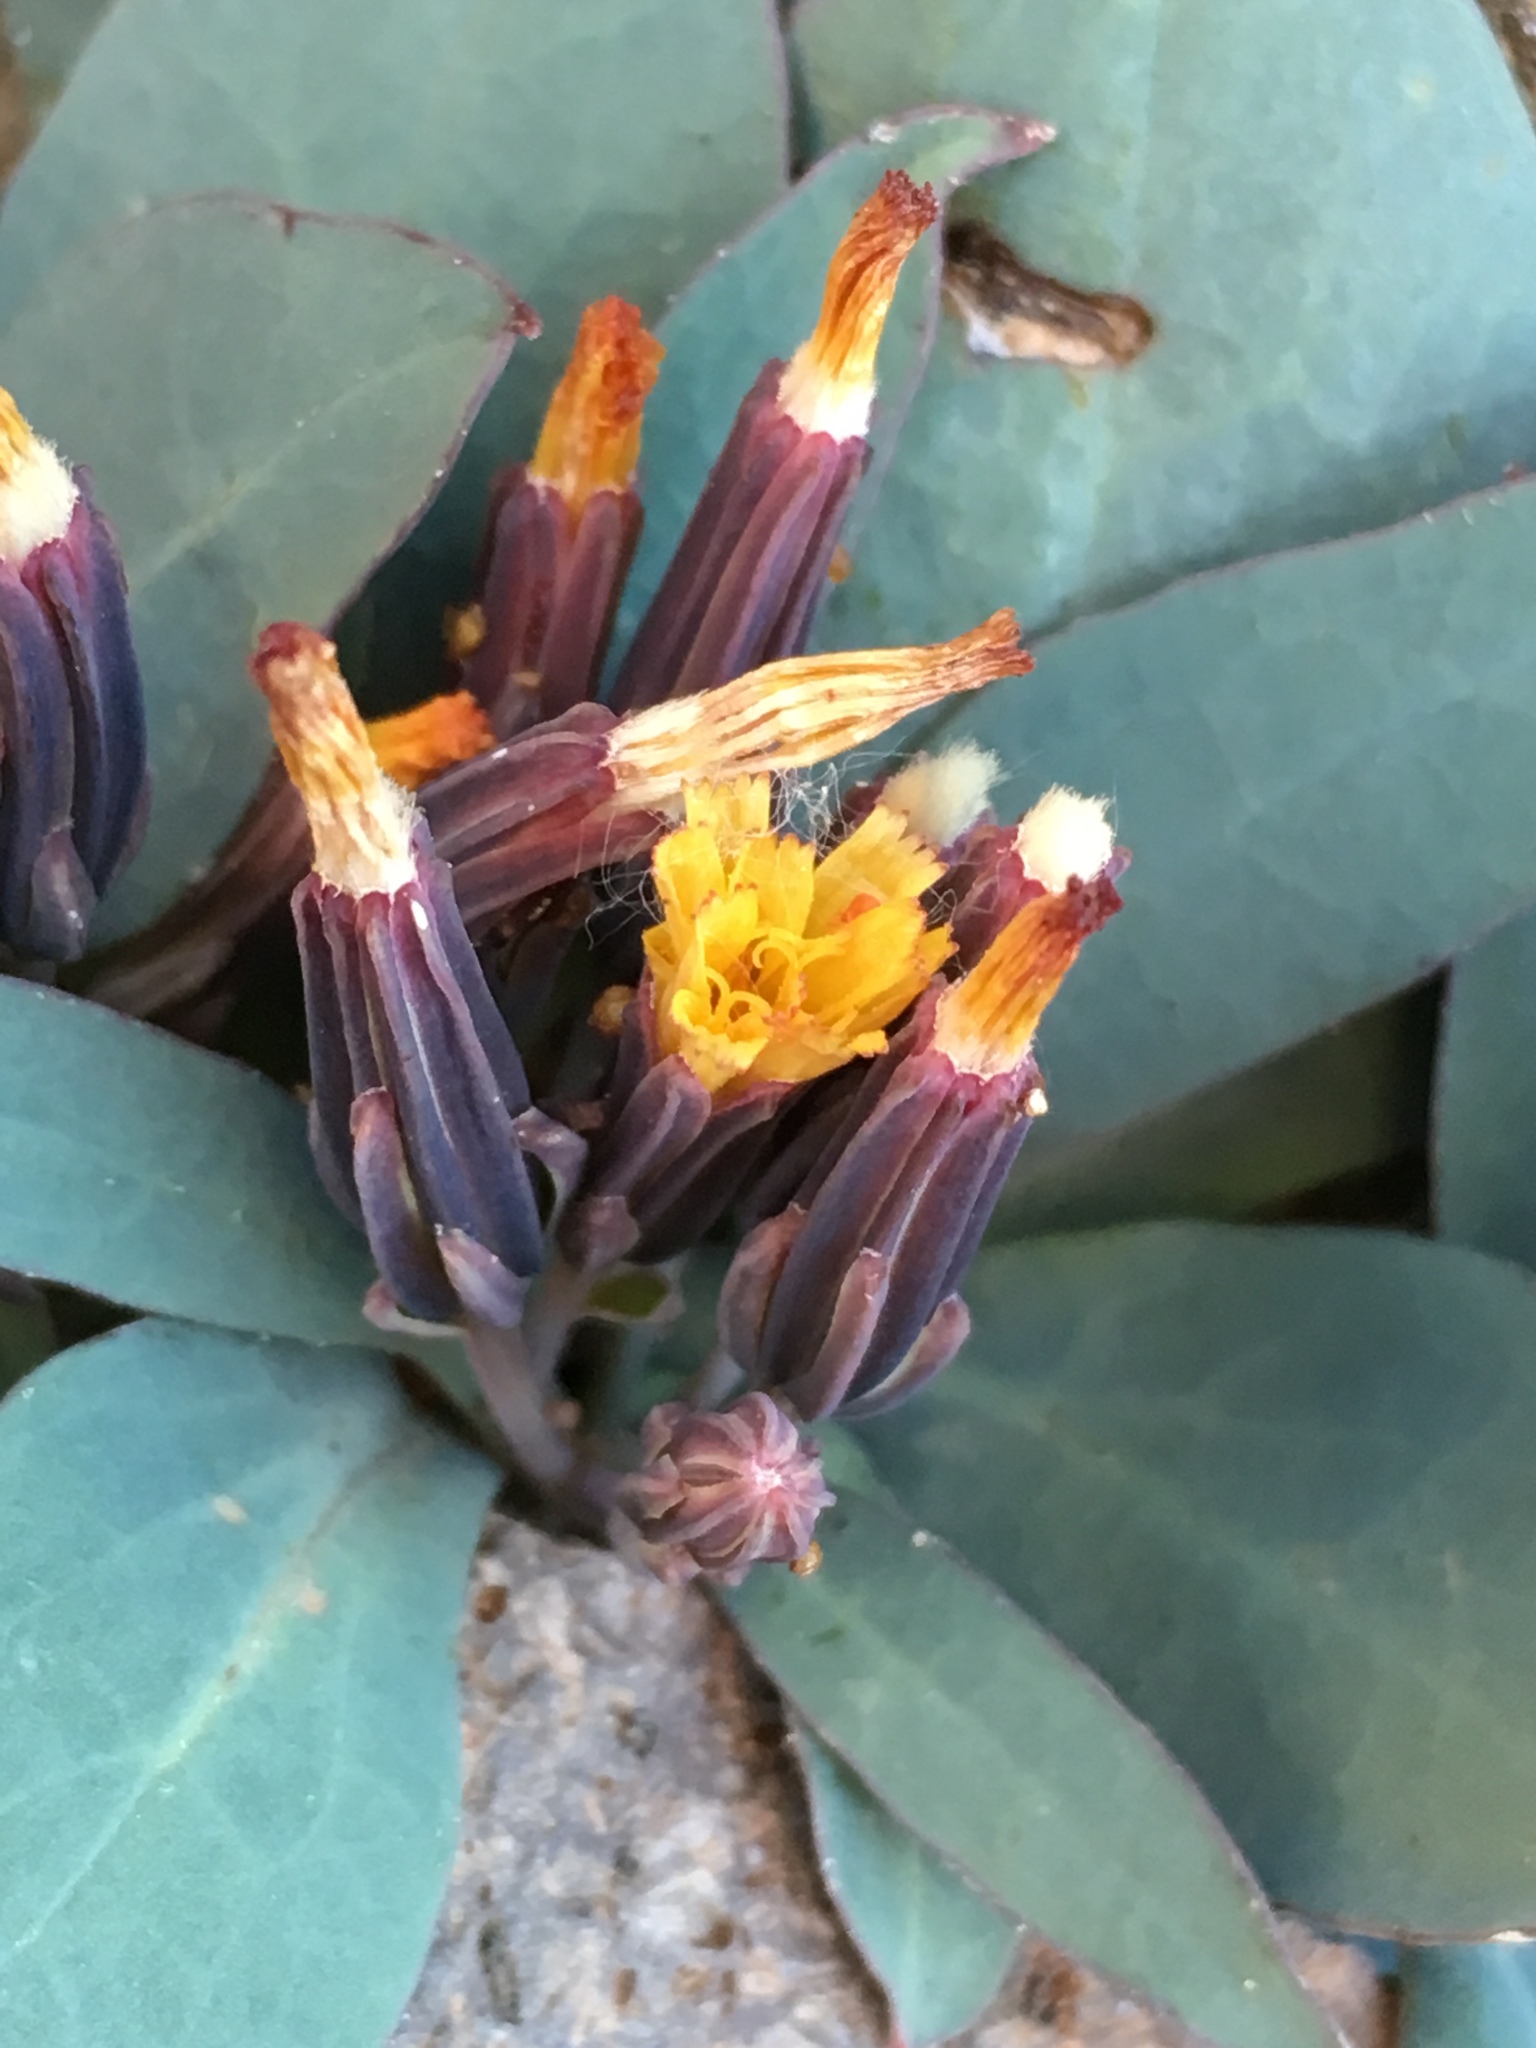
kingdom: Plantae
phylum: Tracheophyta
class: Magnoliopsida
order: Asterales
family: Asteraceae
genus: Askellia
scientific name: Askellia pygmaea
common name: Dwarf alpine hawksbeard
